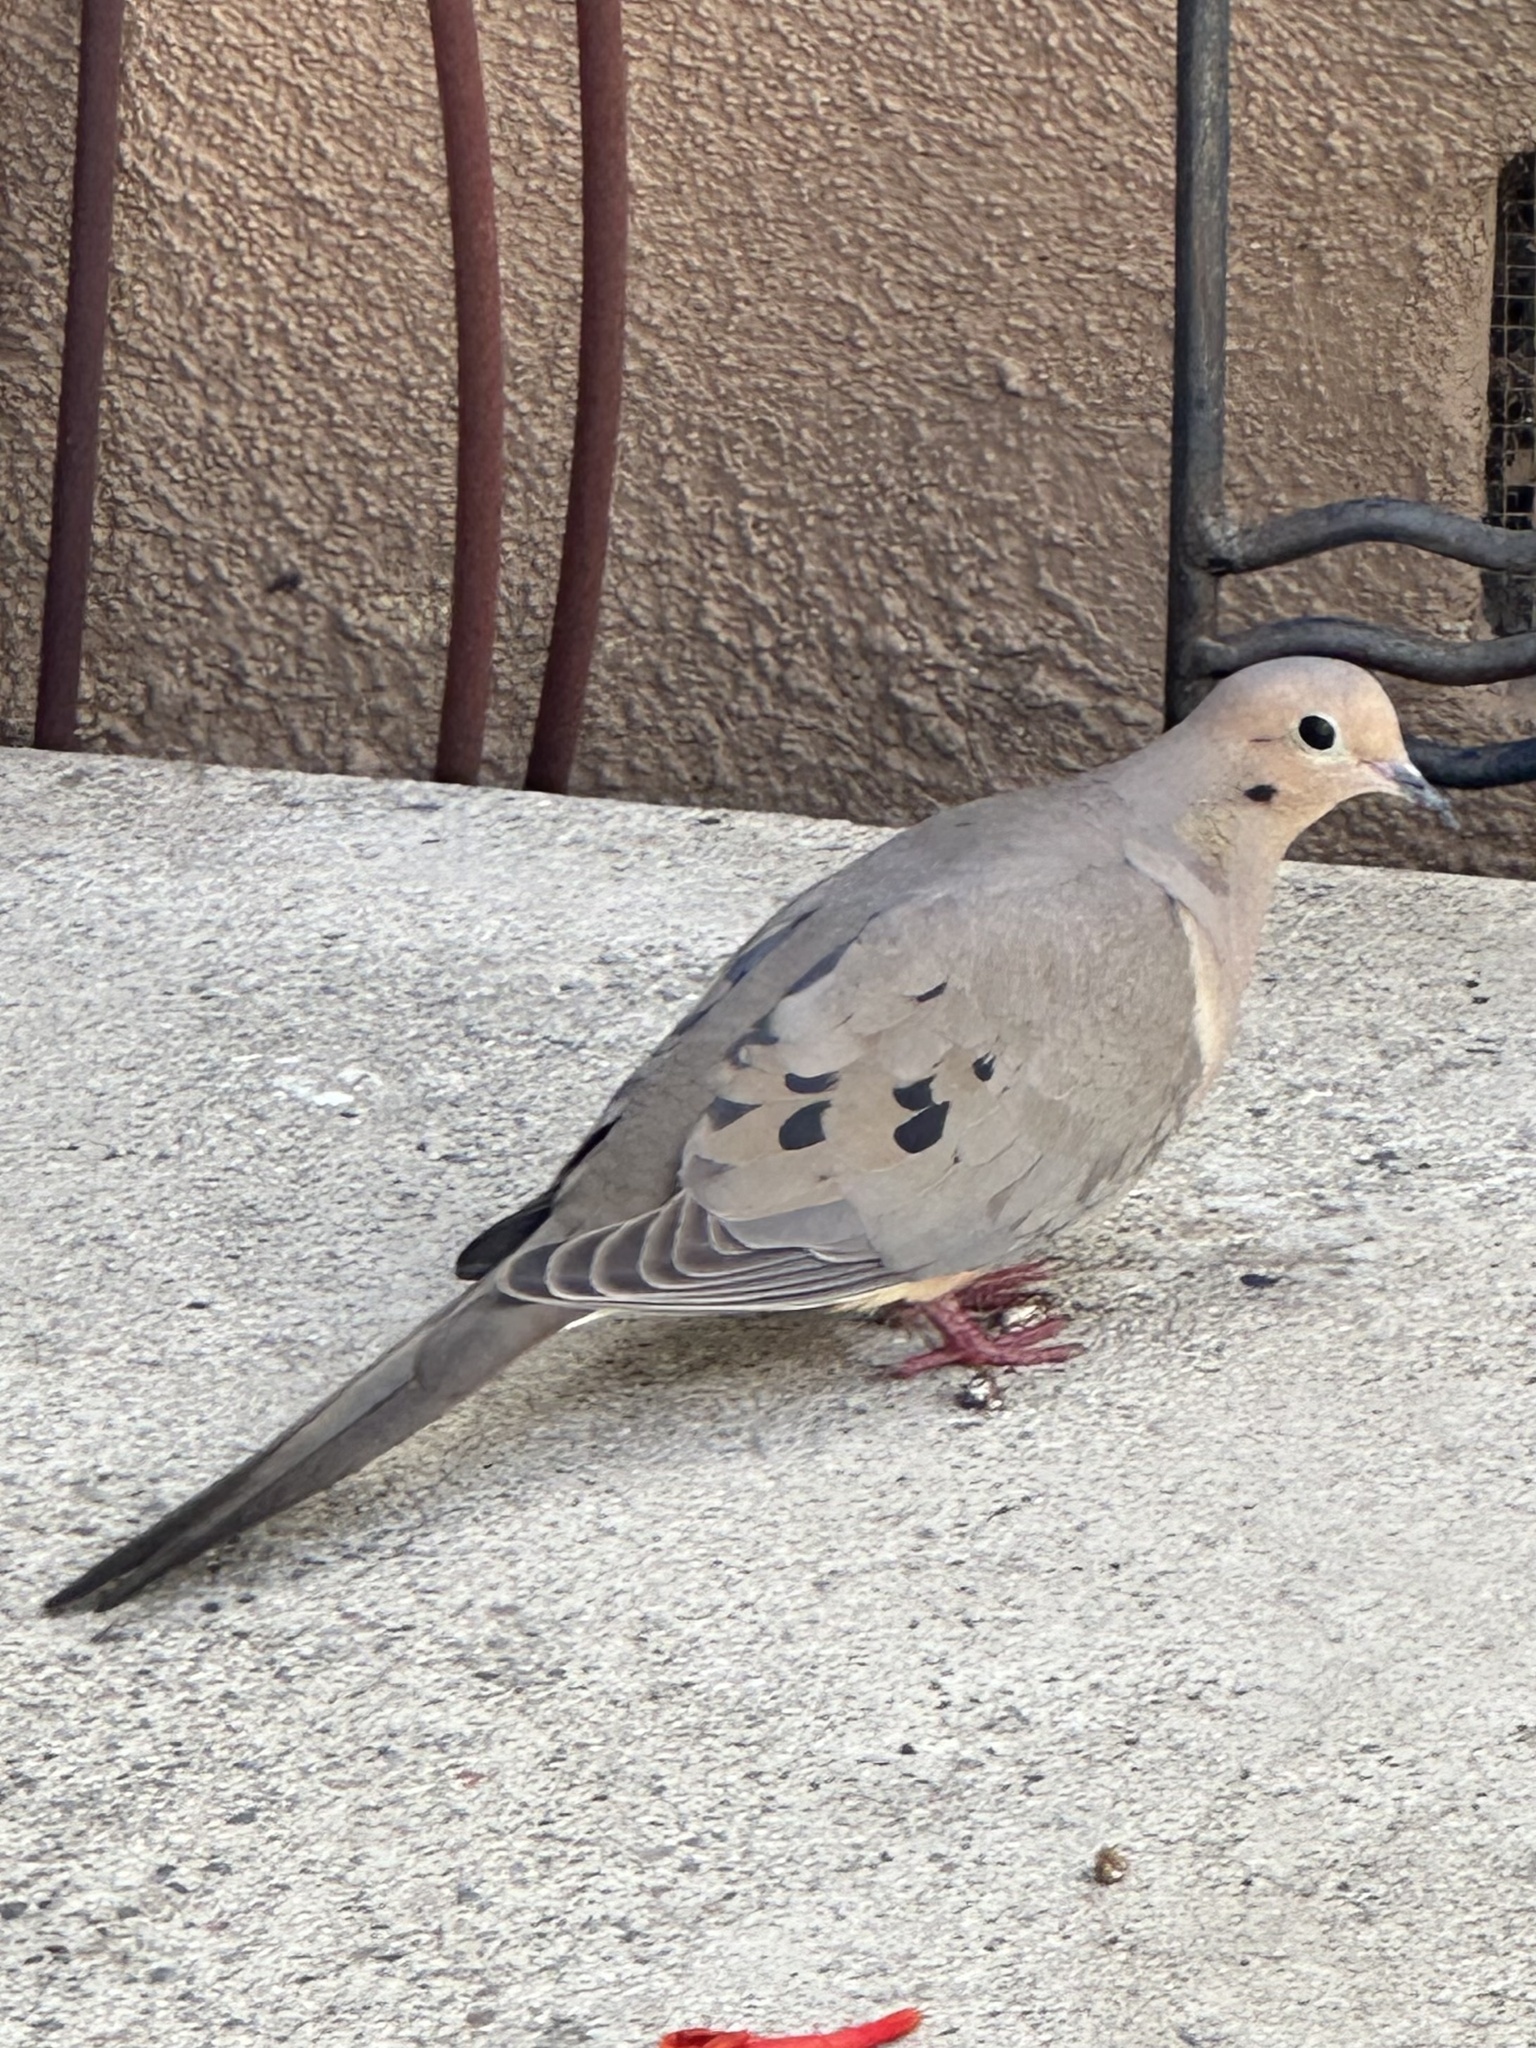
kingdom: Animalia
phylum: Chordata
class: Aves
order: Columbiformes
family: Columbidae
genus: Zenaida
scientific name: Zenaida macroura
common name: Mourning dove
